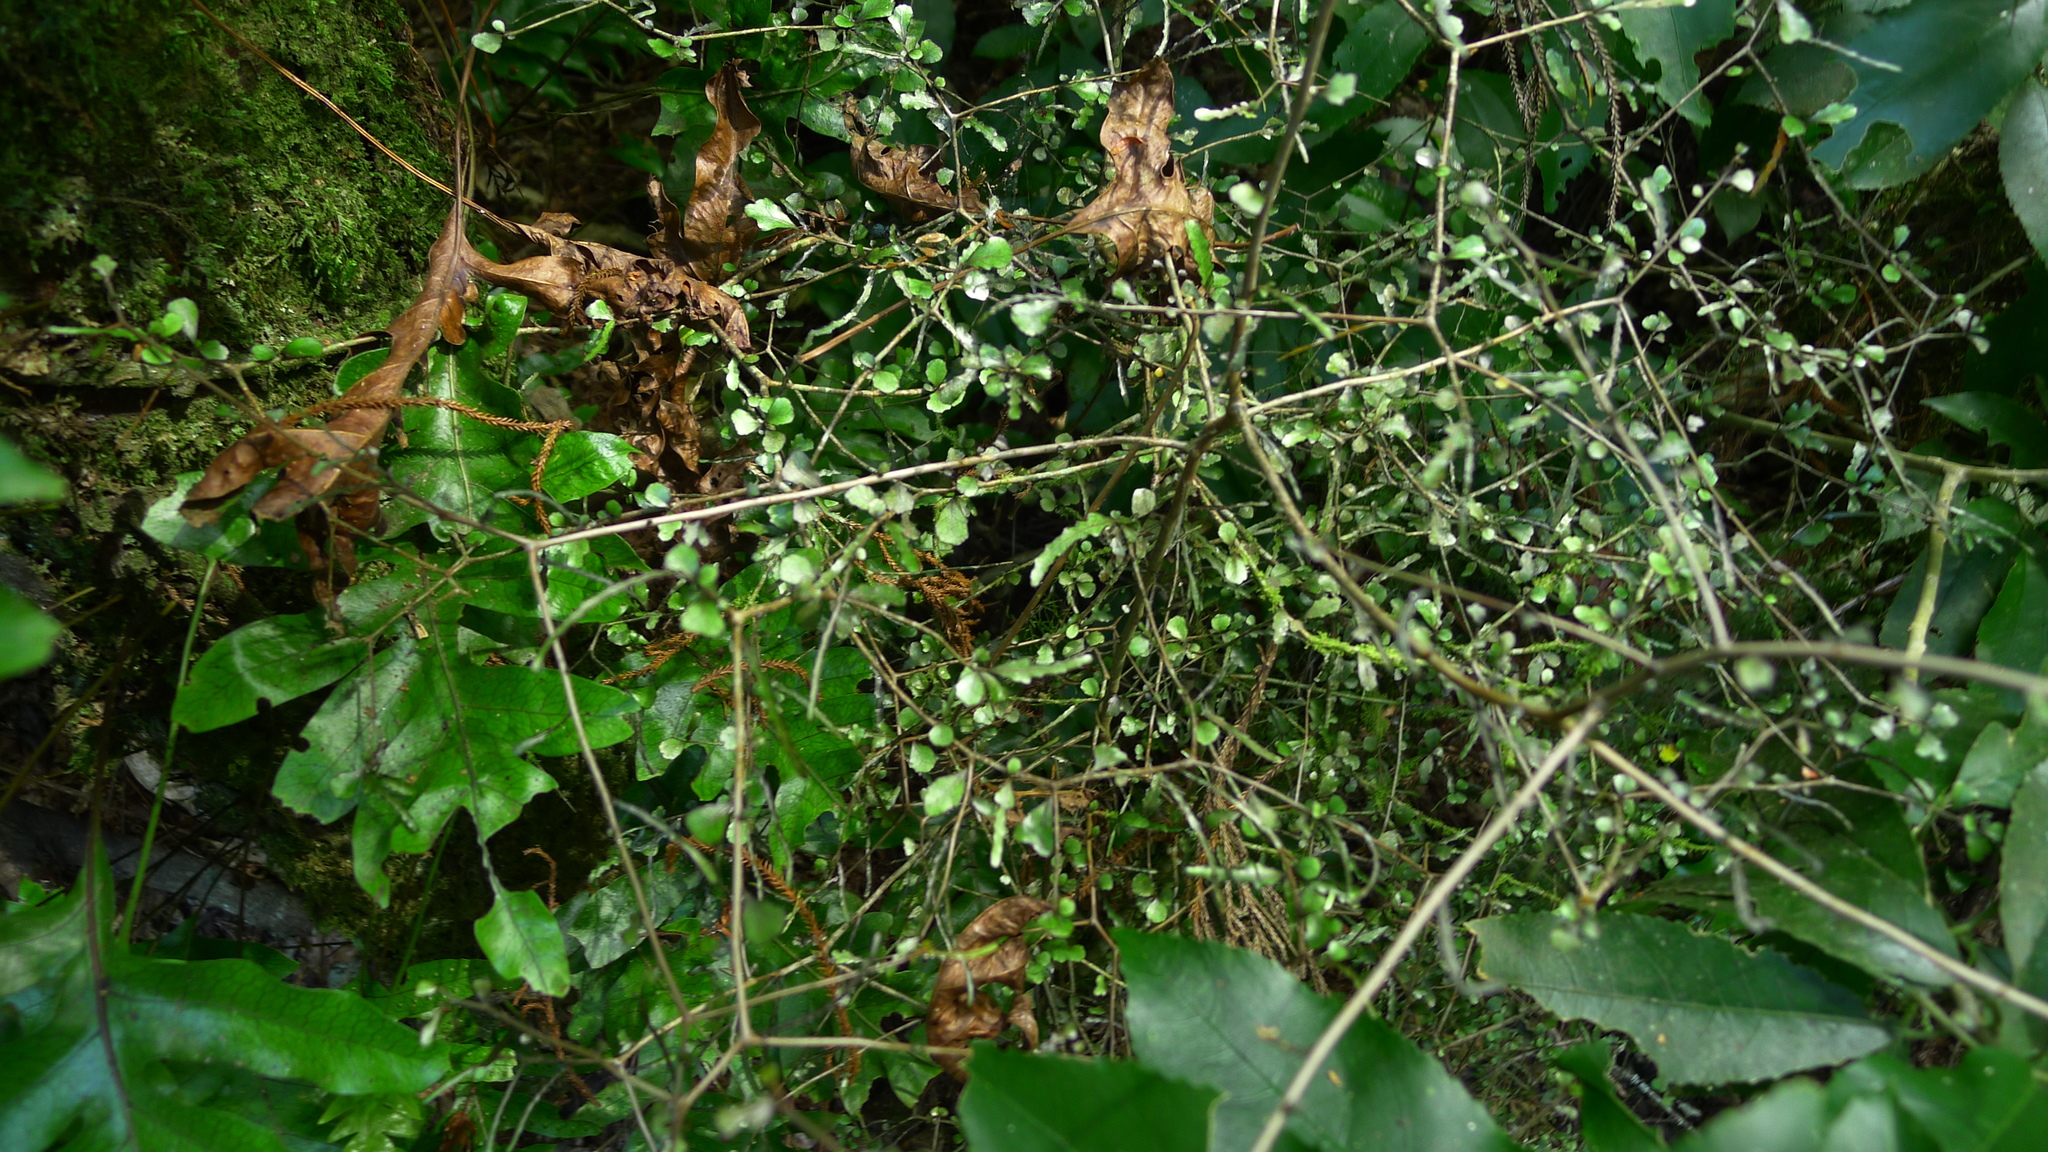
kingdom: Plantae
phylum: Tracheophyta
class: Magnoliopsida
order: Oxalidales
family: Elaeocarpaceae
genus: Elaeocarpus
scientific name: Elaeocarpus hookerianus
